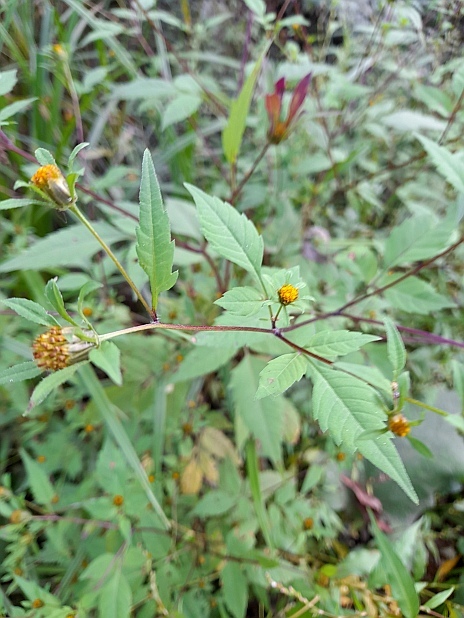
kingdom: Plantae
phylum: Tracheophyta
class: Magnoliopsida
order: Asterales
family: Asteraceae
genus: Bidens
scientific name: Bidens frondosa
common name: Beggarticks
